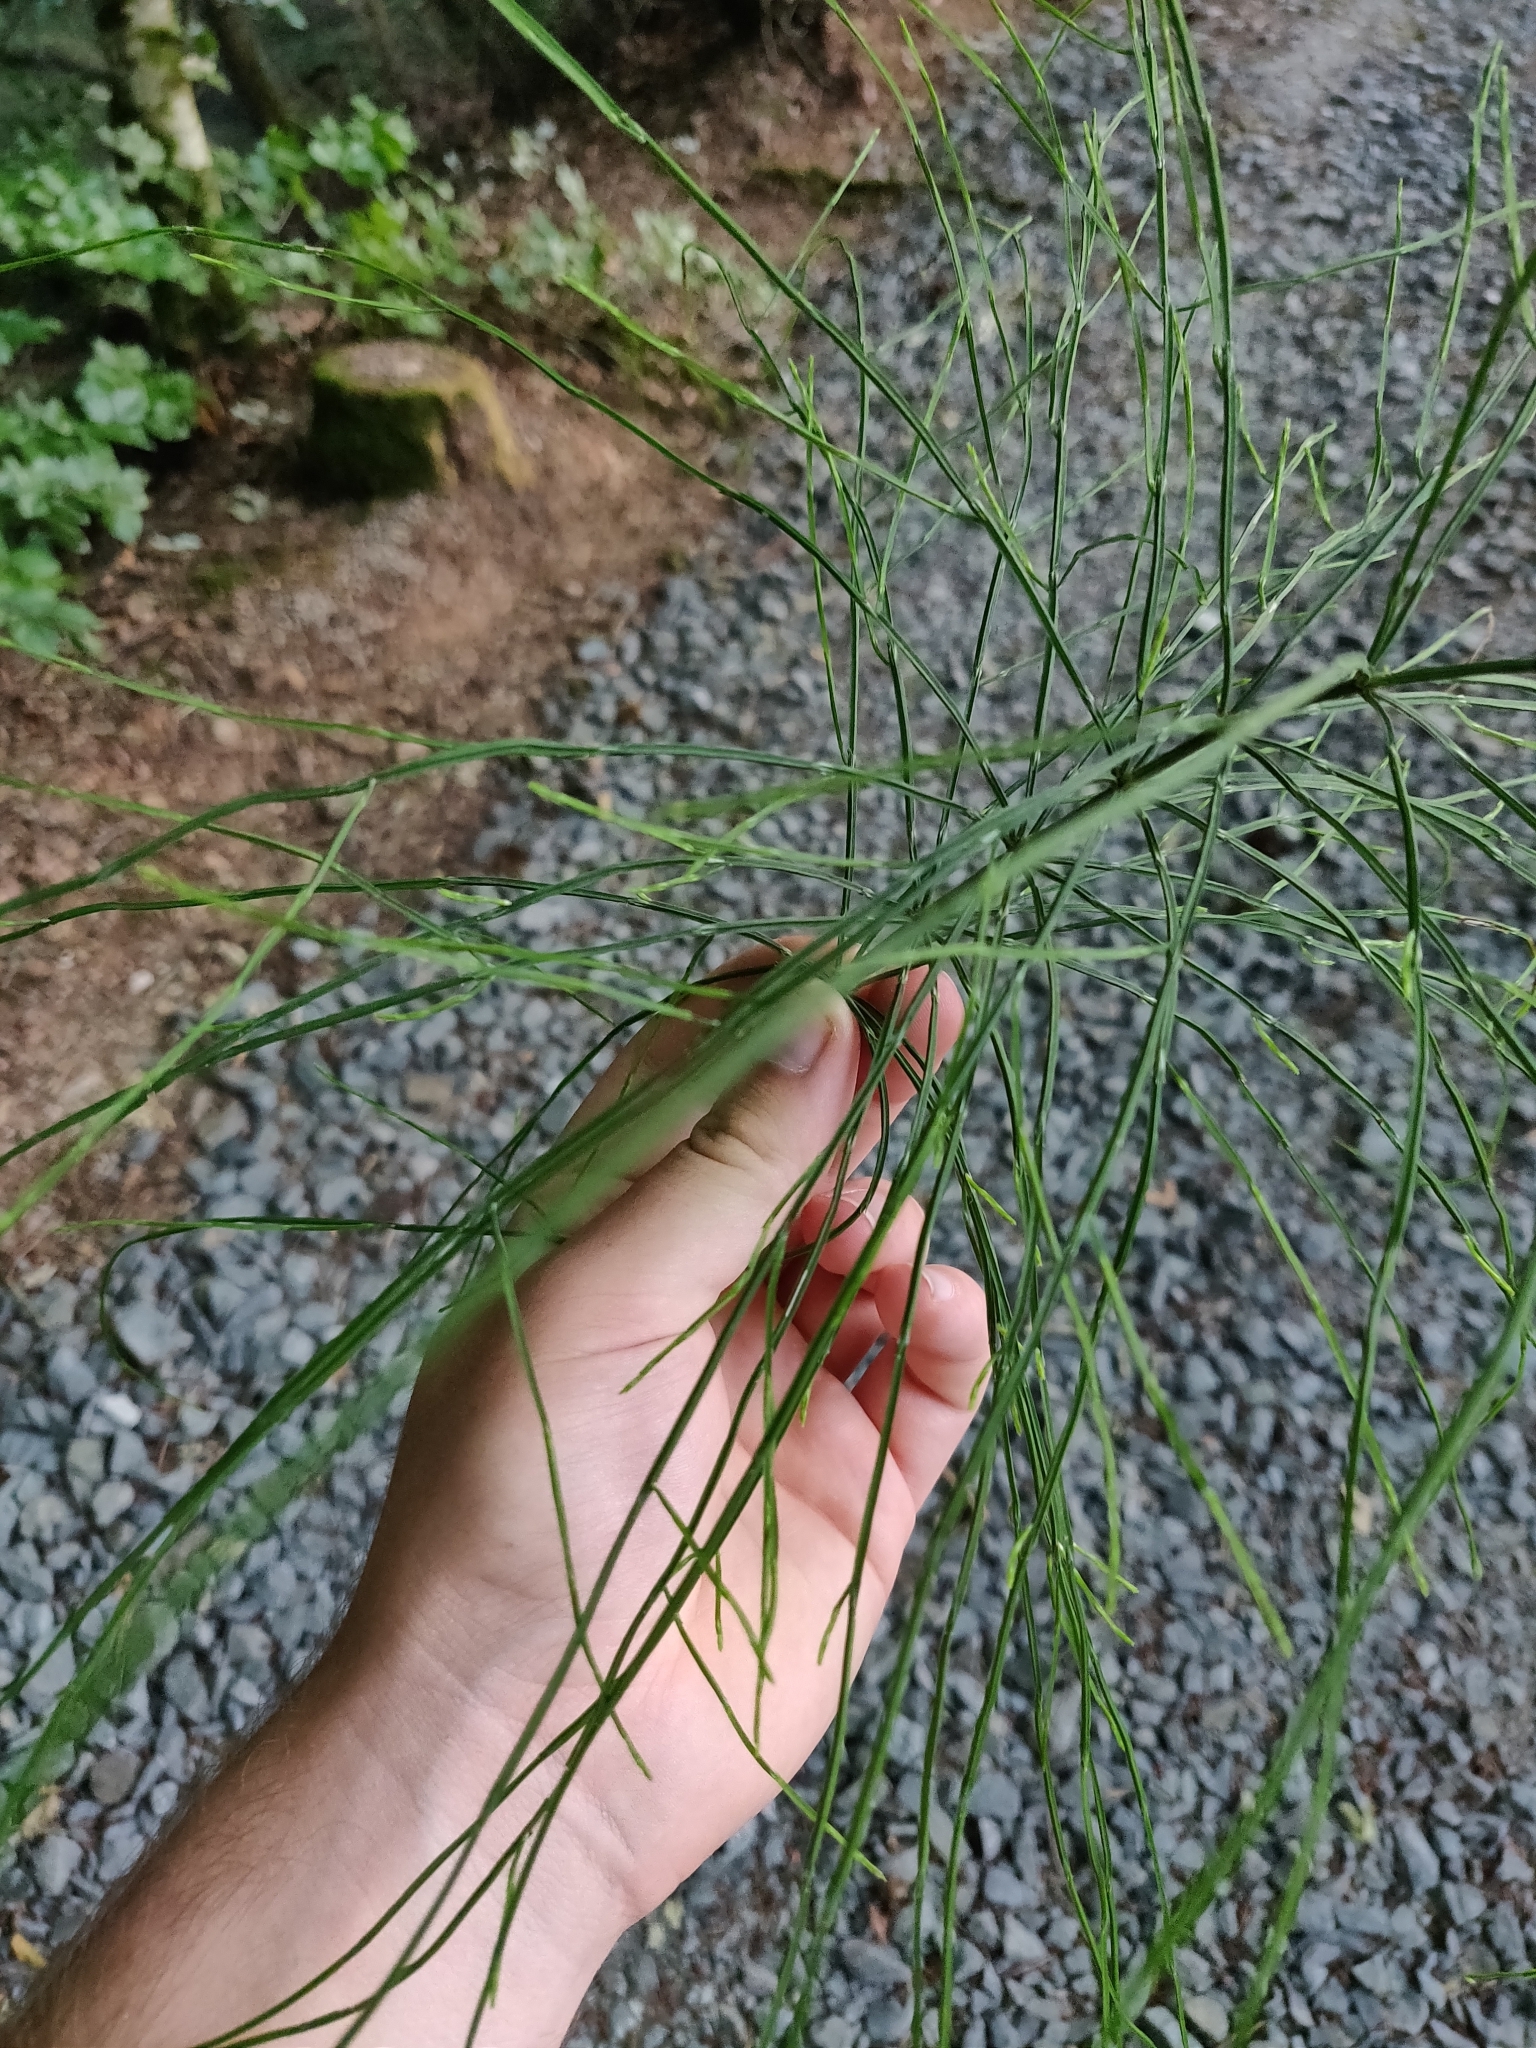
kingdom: Plantae
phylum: Tracheophyta
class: Polypodiopsida
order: Equisetales
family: Equisetaceae
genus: Equisetum
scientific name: Equisetum arvense
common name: Field horsetail
